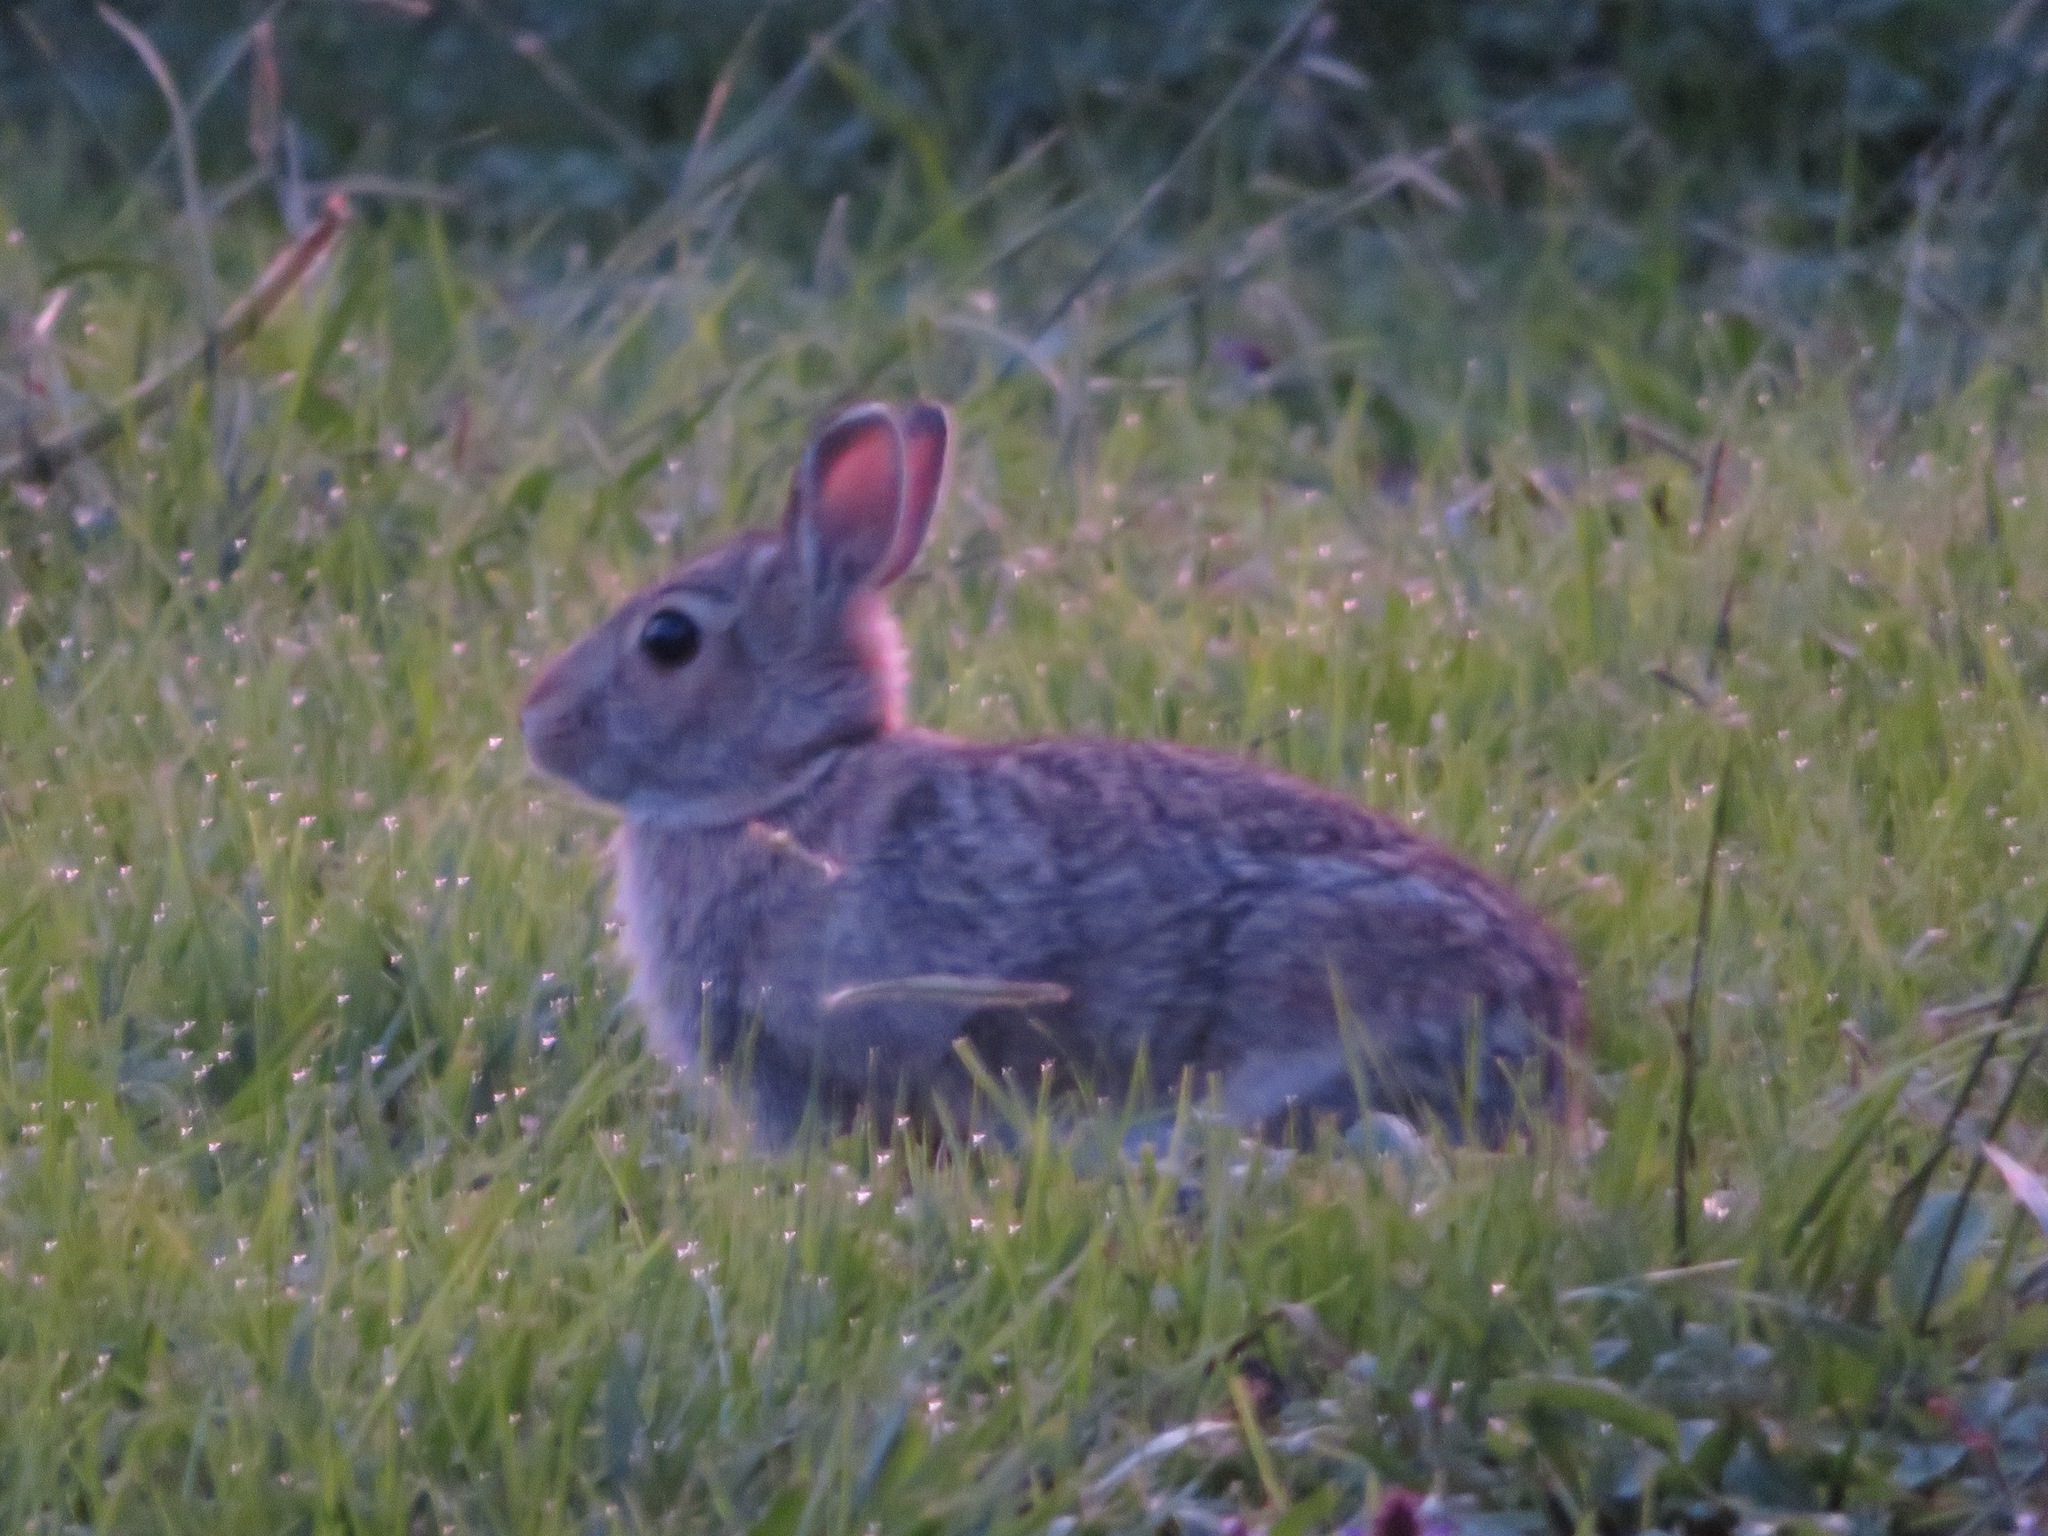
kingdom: Animalia
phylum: Chordata
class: Mammalia
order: Lagomorpha
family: Leporidae
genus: Sylvilagus
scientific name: Sylvilagus floridanus
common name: Eastern cottontail
